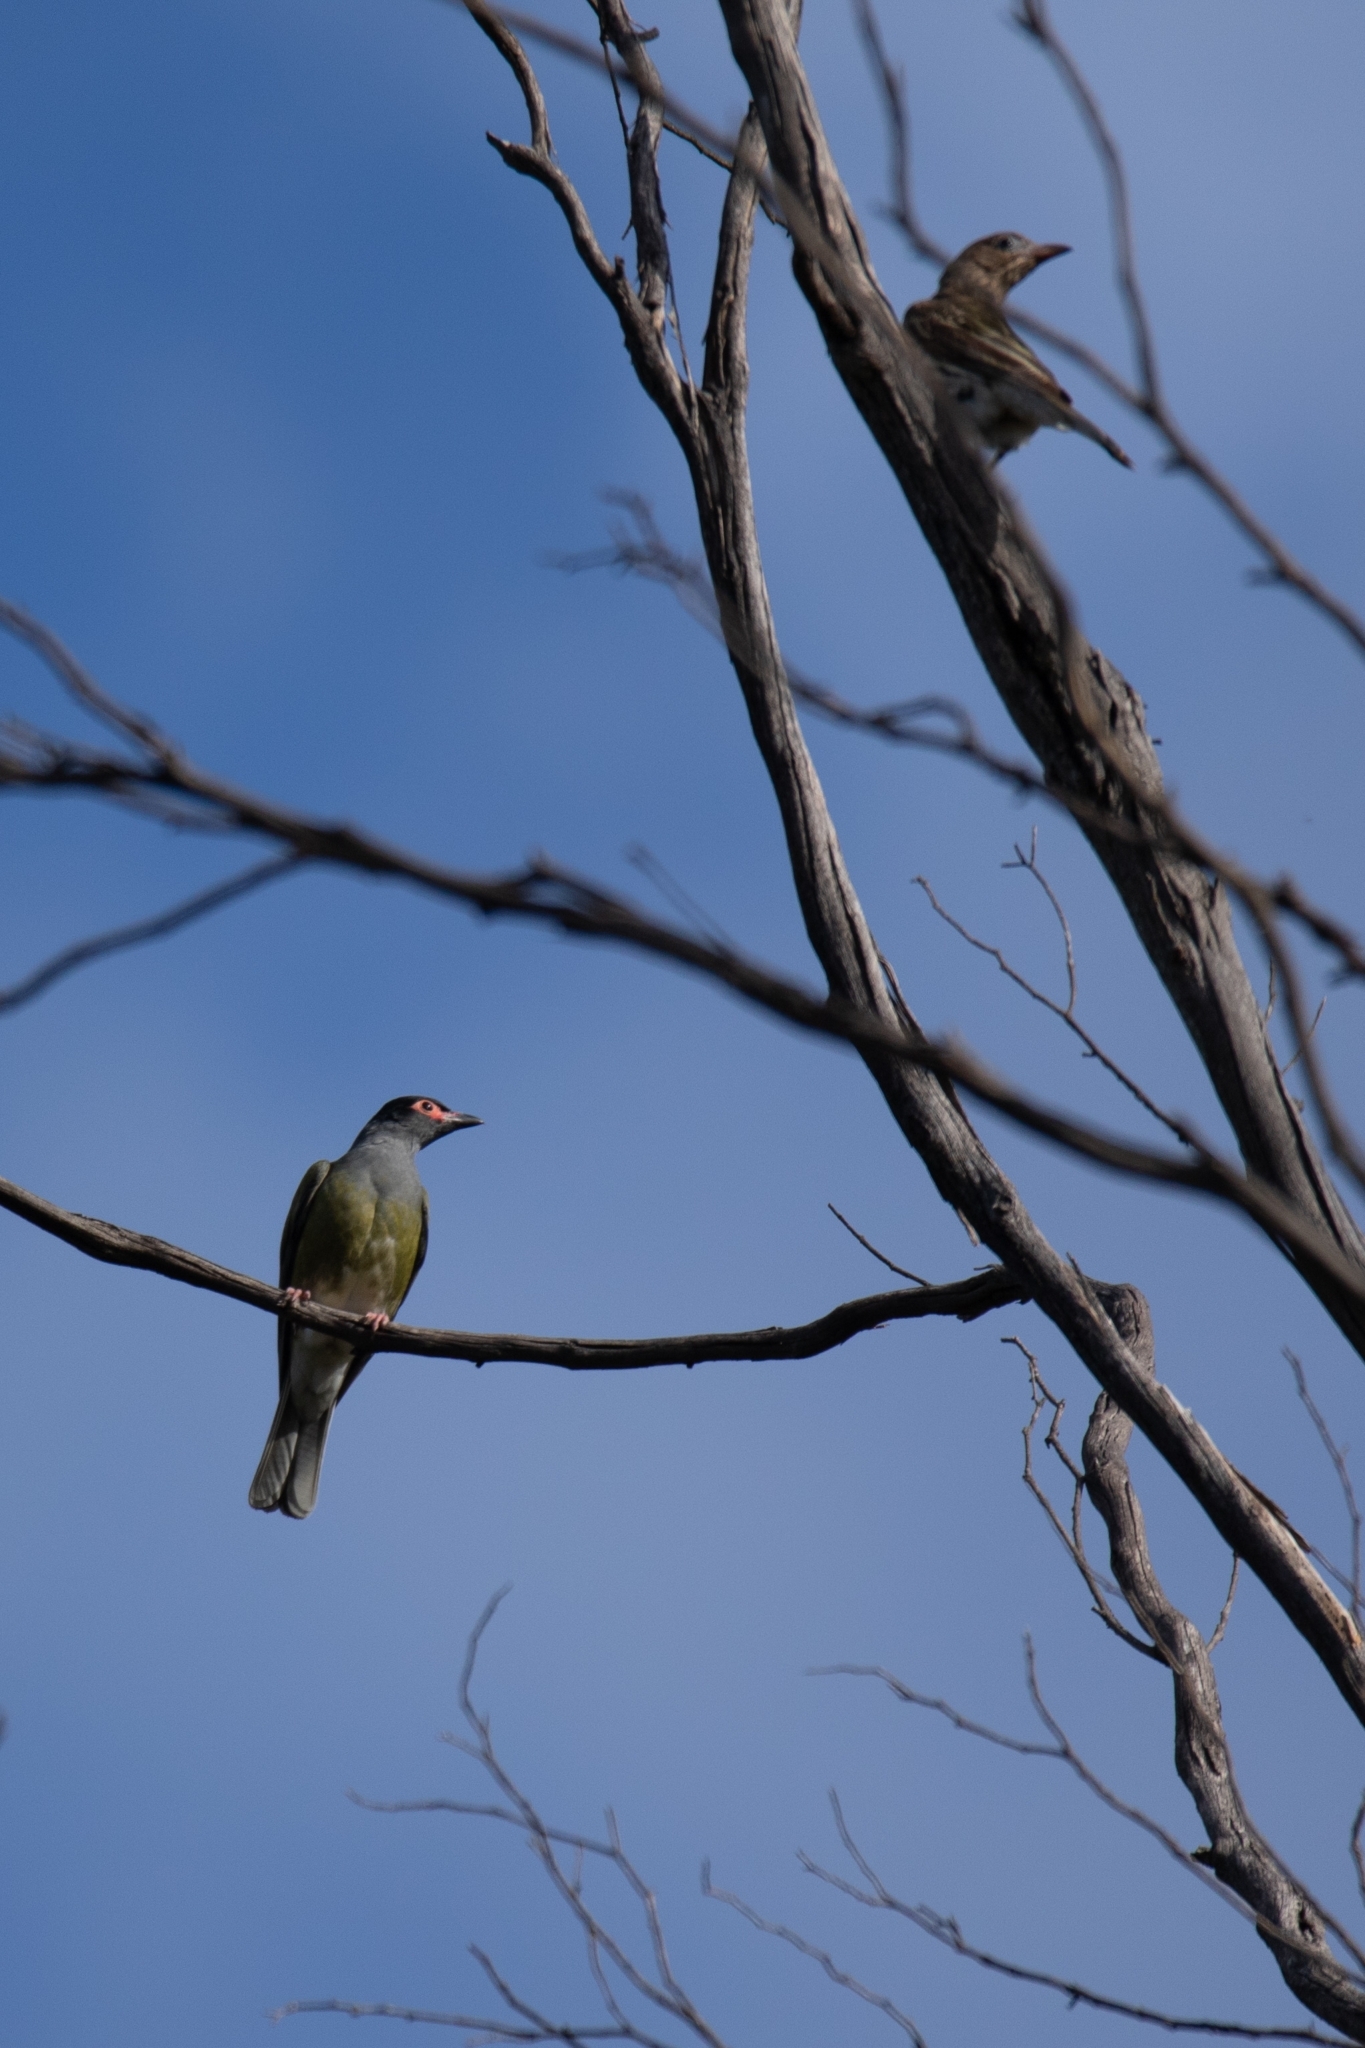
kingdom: Animalia
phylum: Chordata
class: Aves
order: Passeriformes
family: Oriolidae
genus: Sphecotheres
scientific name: Sphecotheres vieilloti
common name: Australasian figbird
